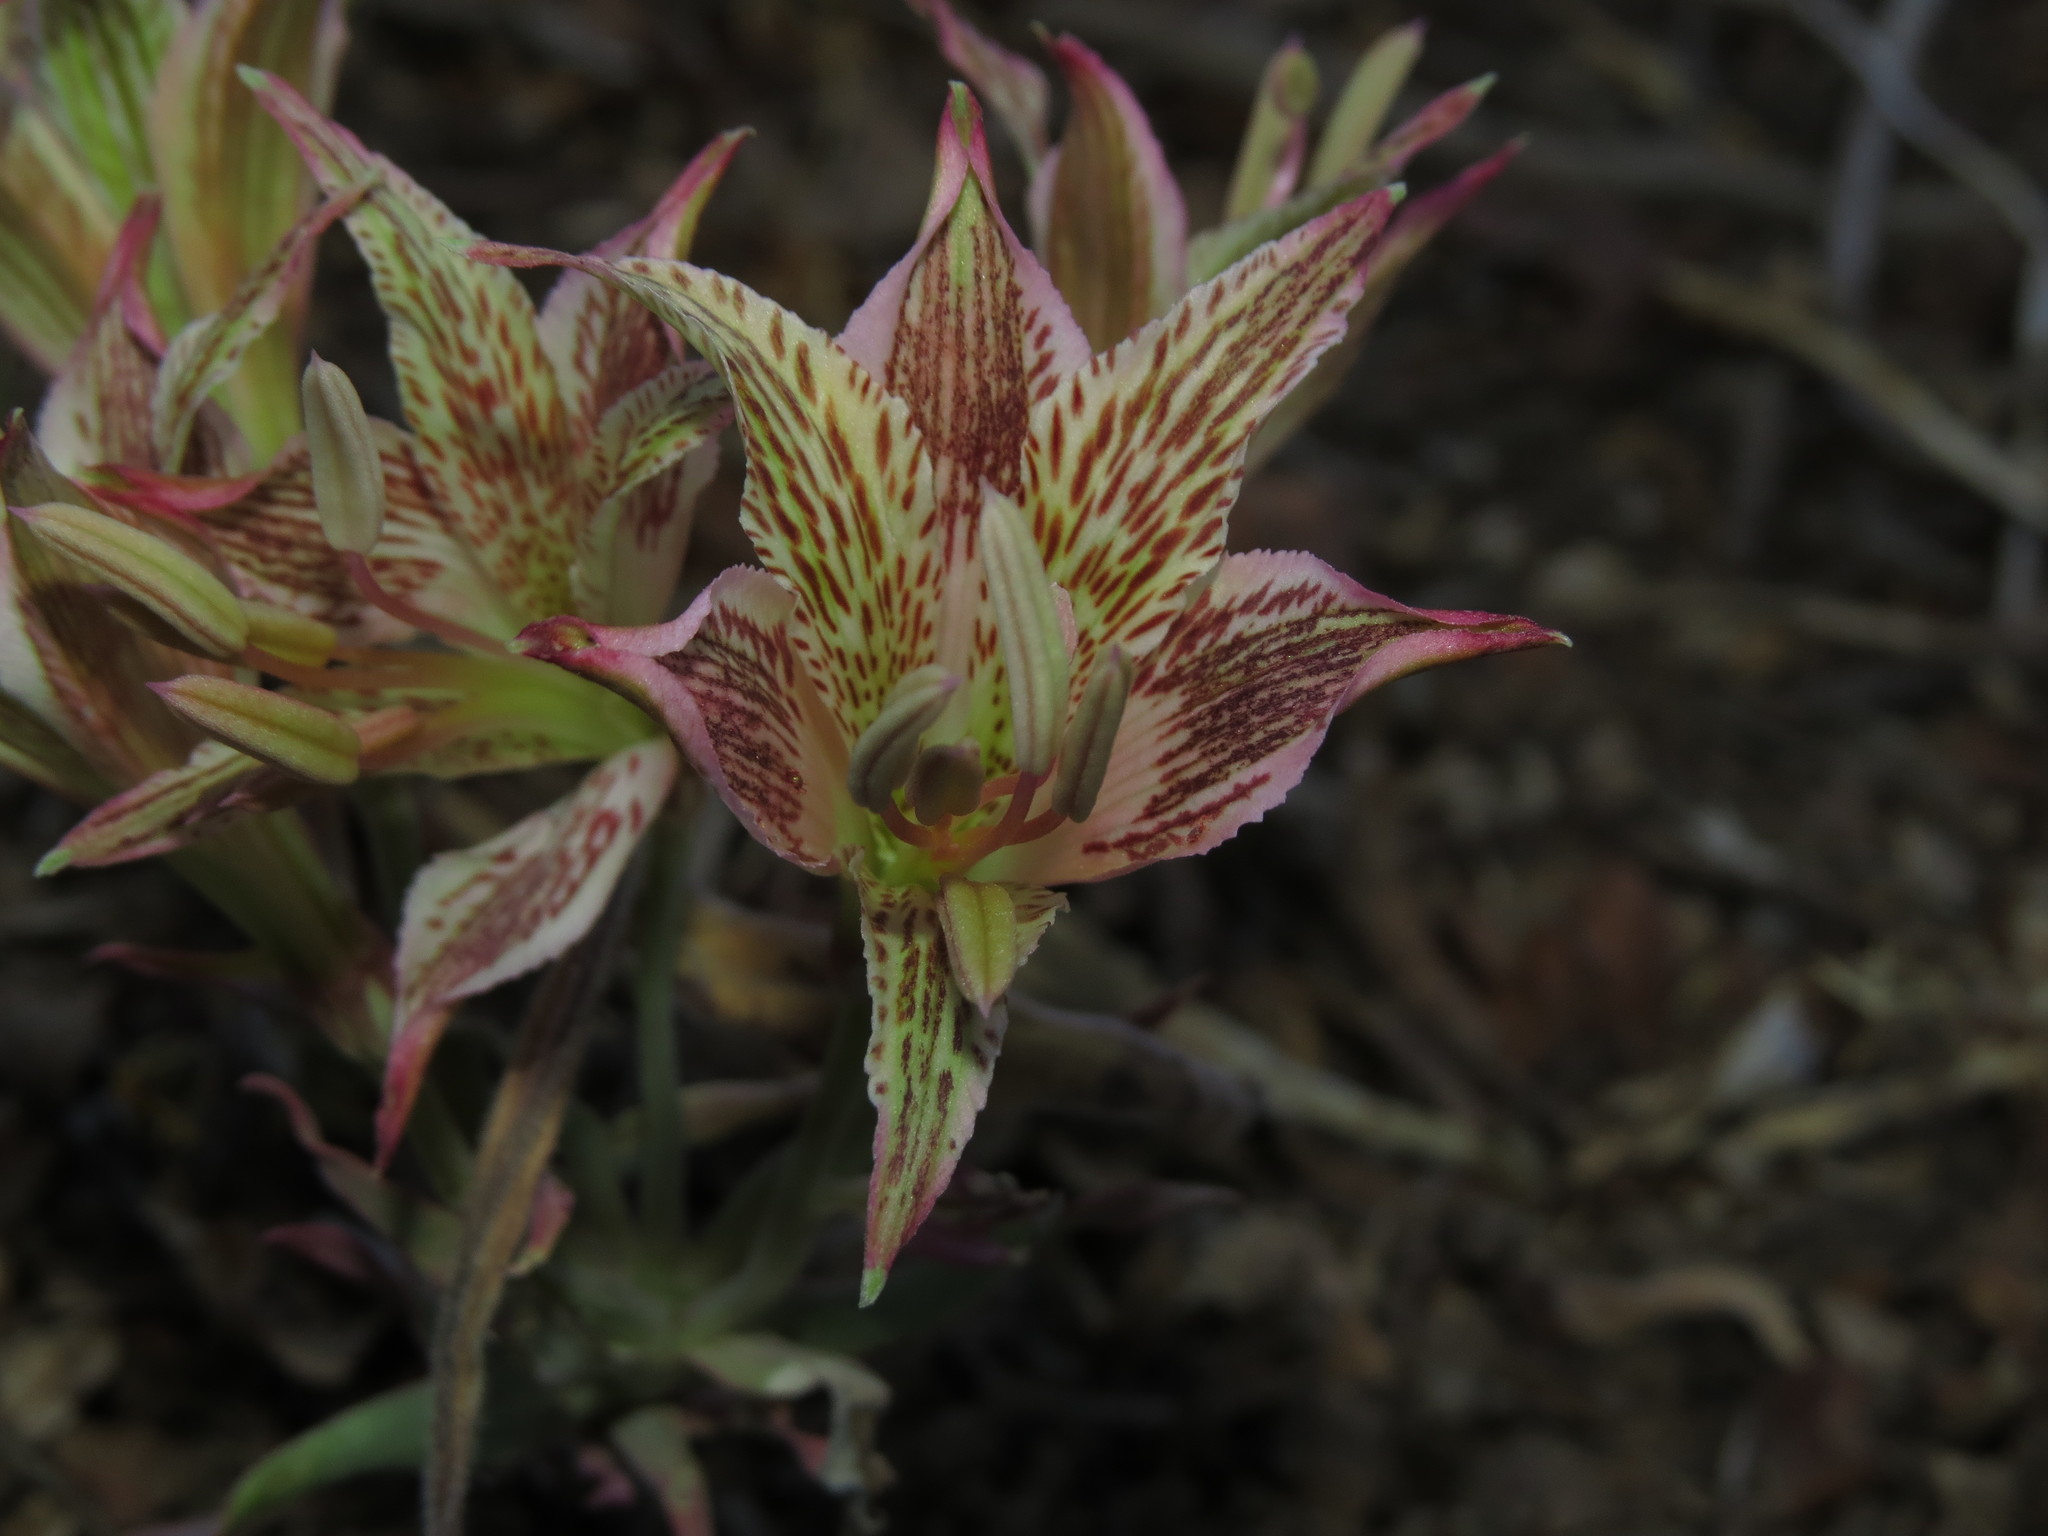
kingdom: Plantae
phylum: Tracheophyta
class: Liliopsida
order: Liliales
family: Alstroemeriaceae
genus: Alstroemeria
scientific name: Alstroemeria garaventae
